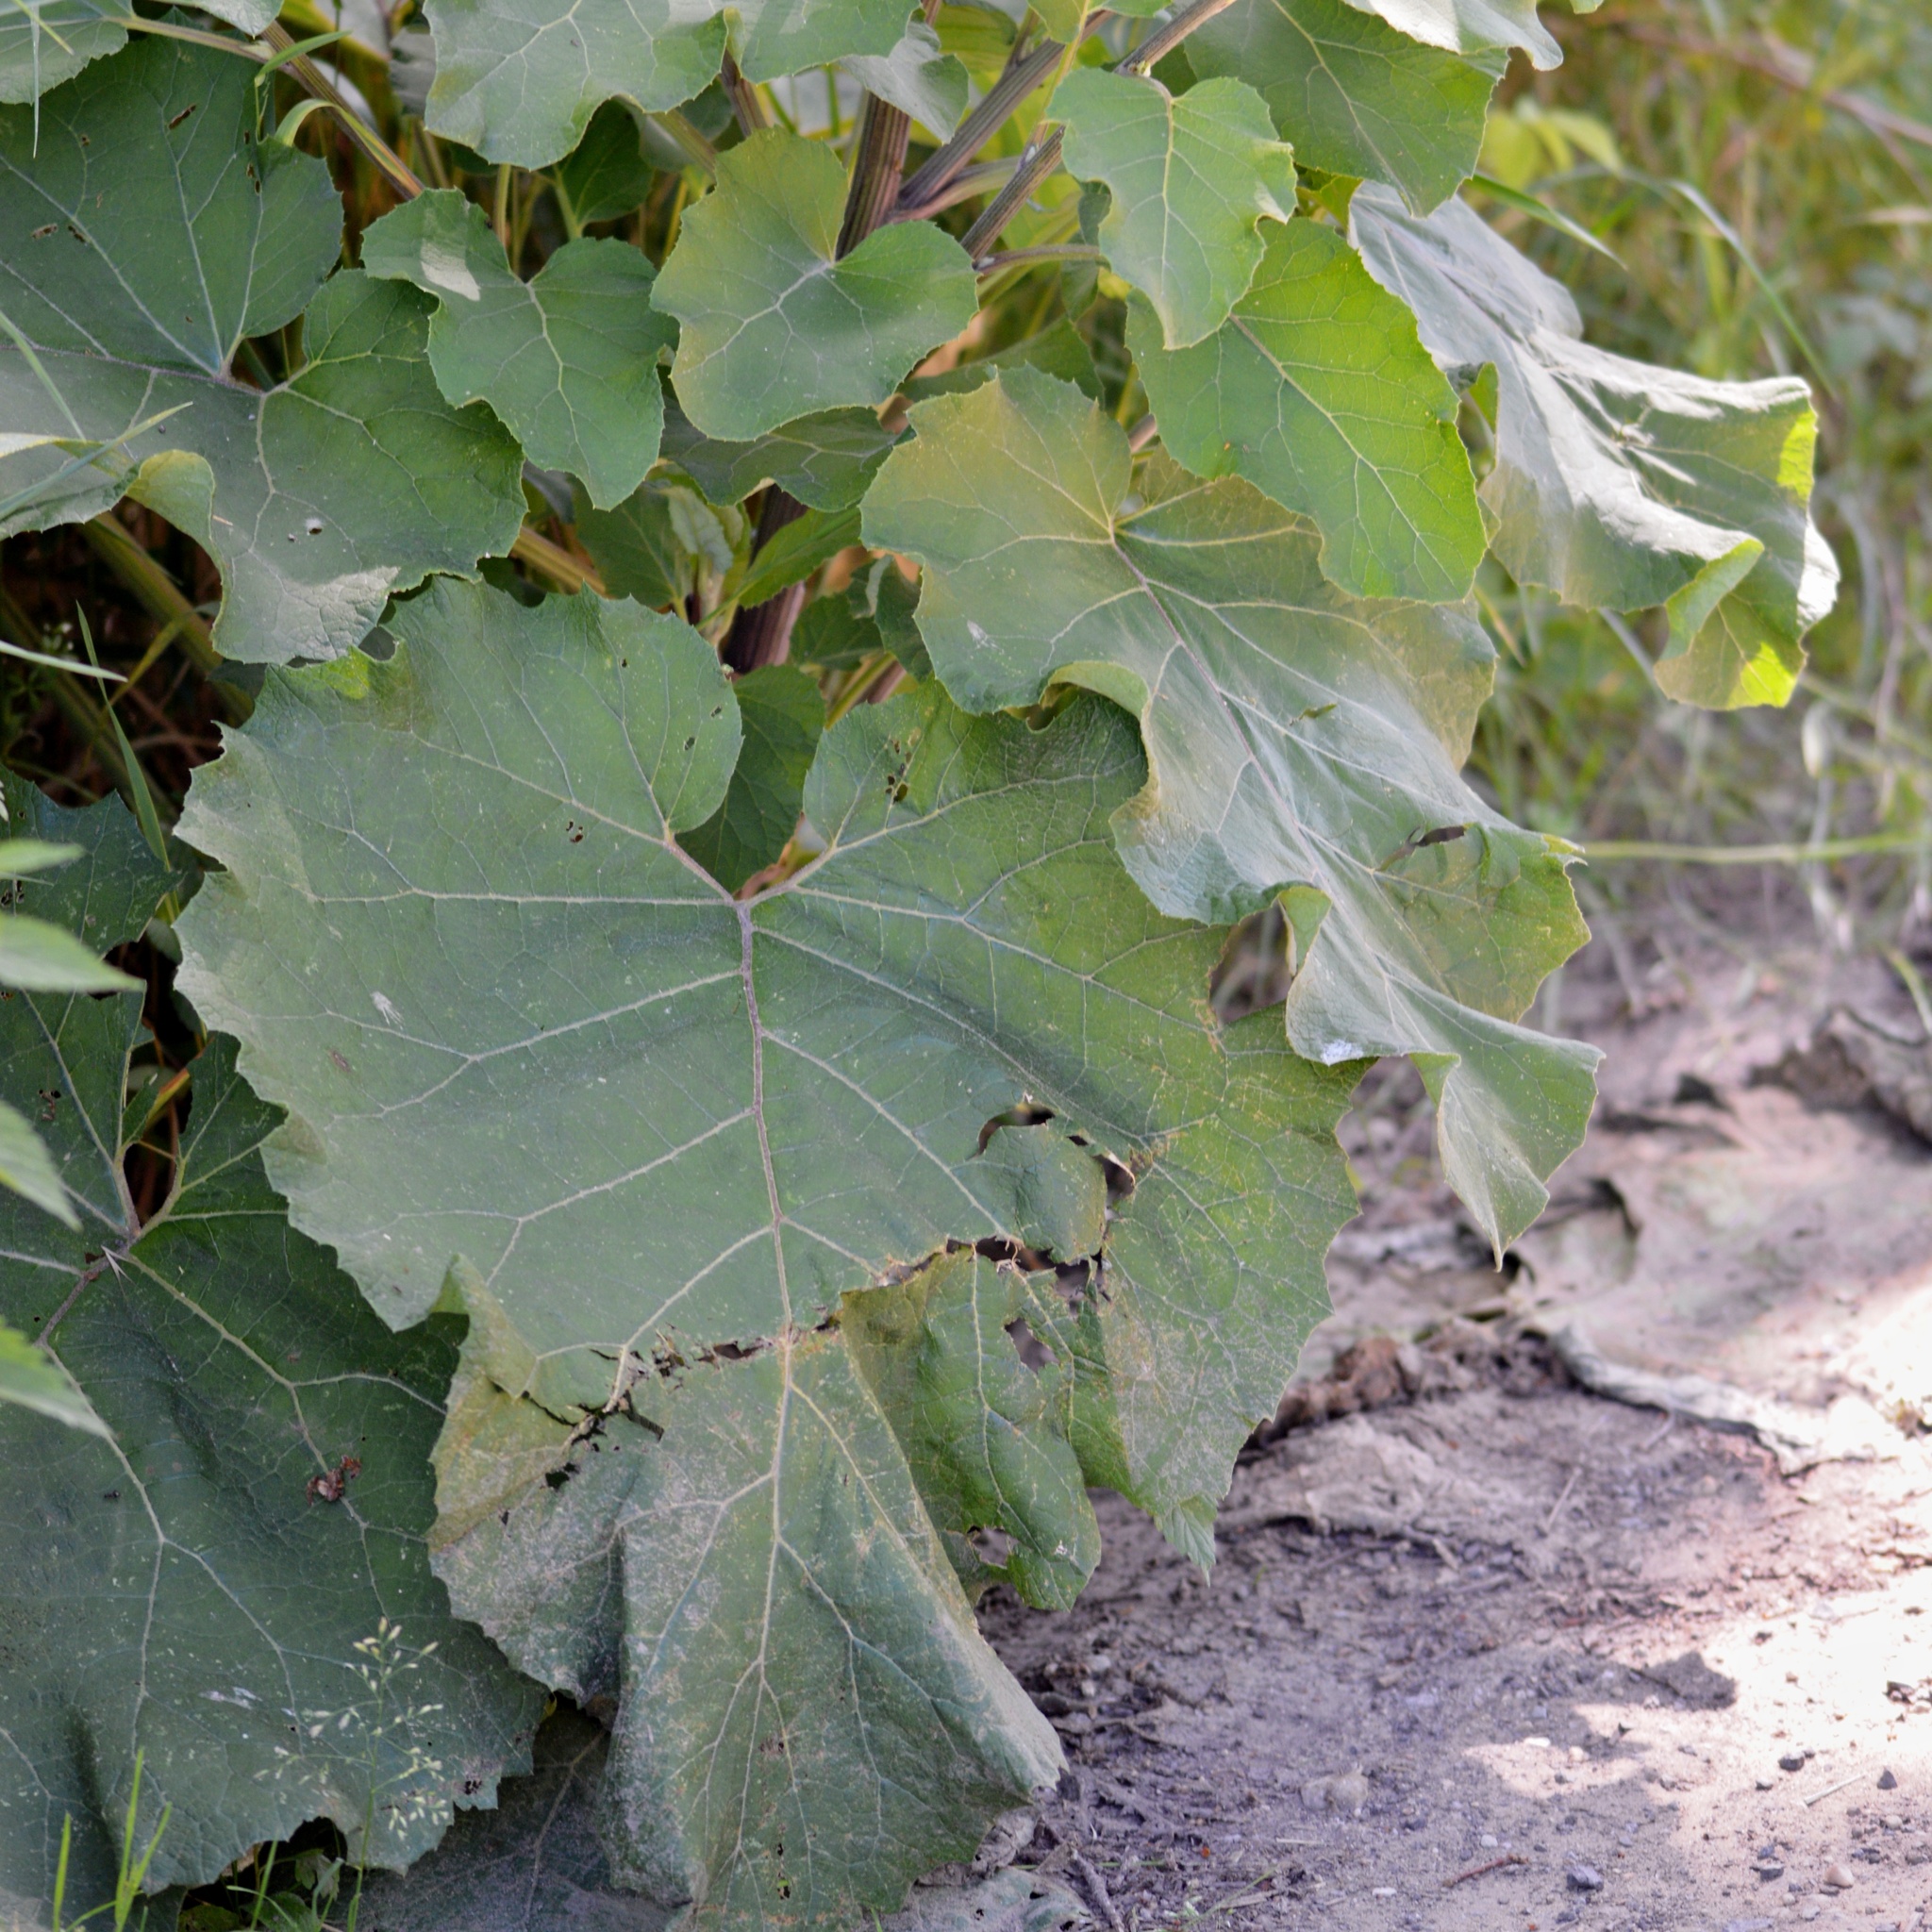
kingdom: Plantae
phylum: Tracheophyta
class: Magnoliopsida
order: Asterales
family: Asteraceae
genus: Arctium
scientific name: Arctium tomentosum
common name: Woolly burdock
